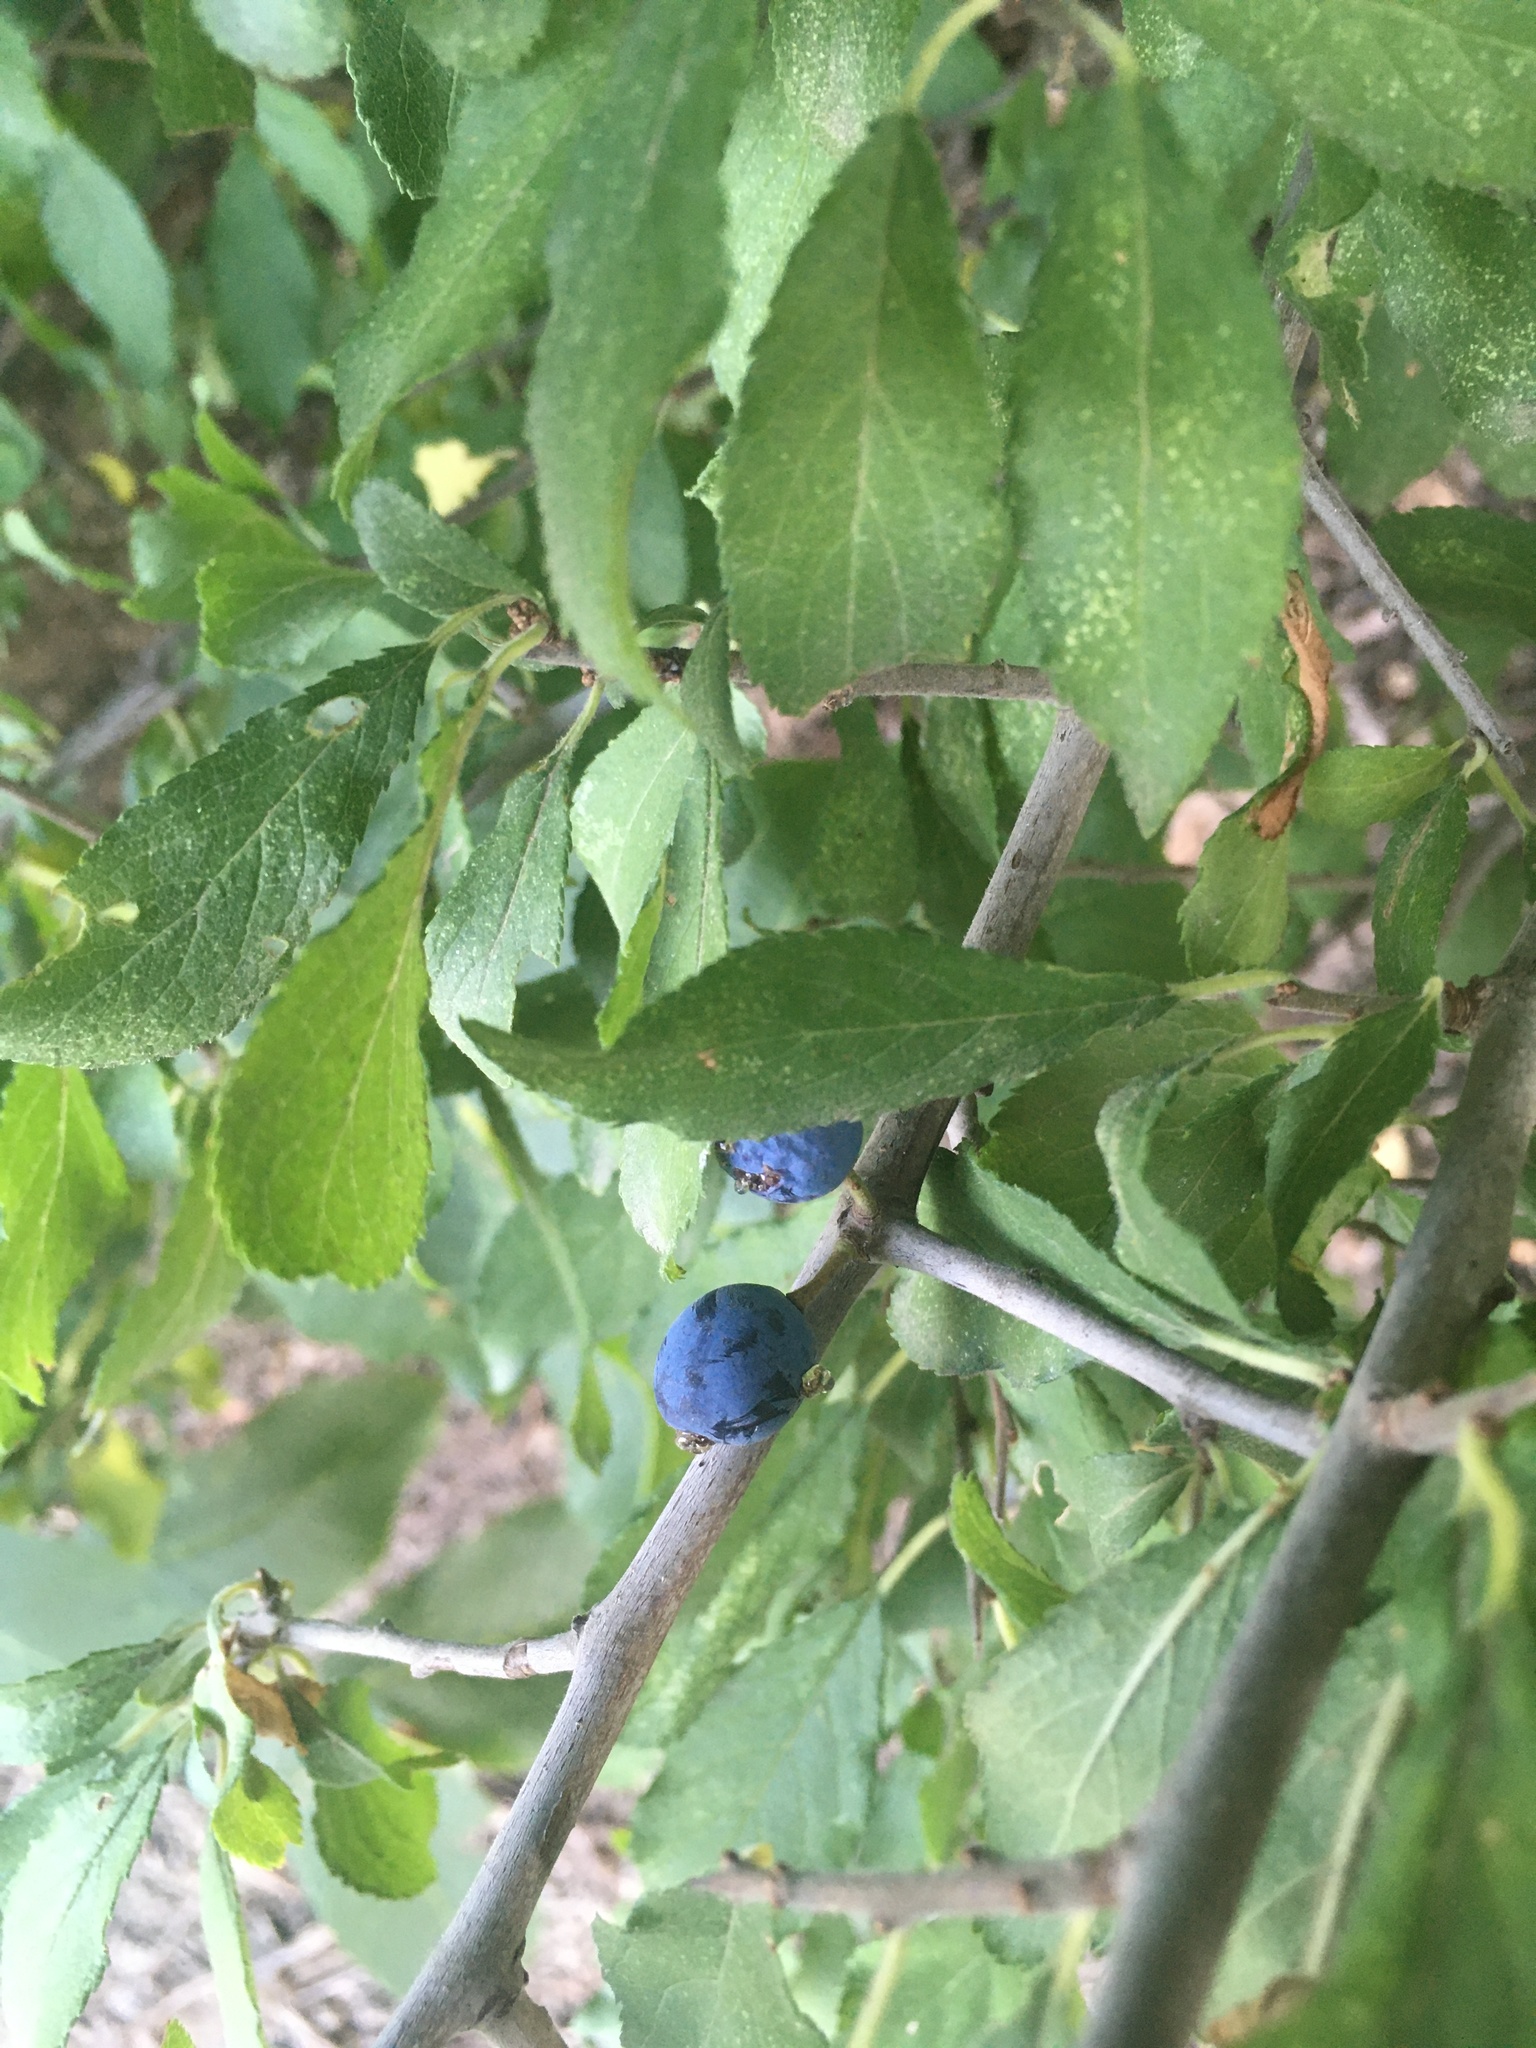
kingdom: Plantae
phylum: Tracheophyta
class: Magnoliopsida
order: Rosales
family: Rosaceae
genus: Prunus
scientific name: Prunus spinosa
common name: Blackthorn
